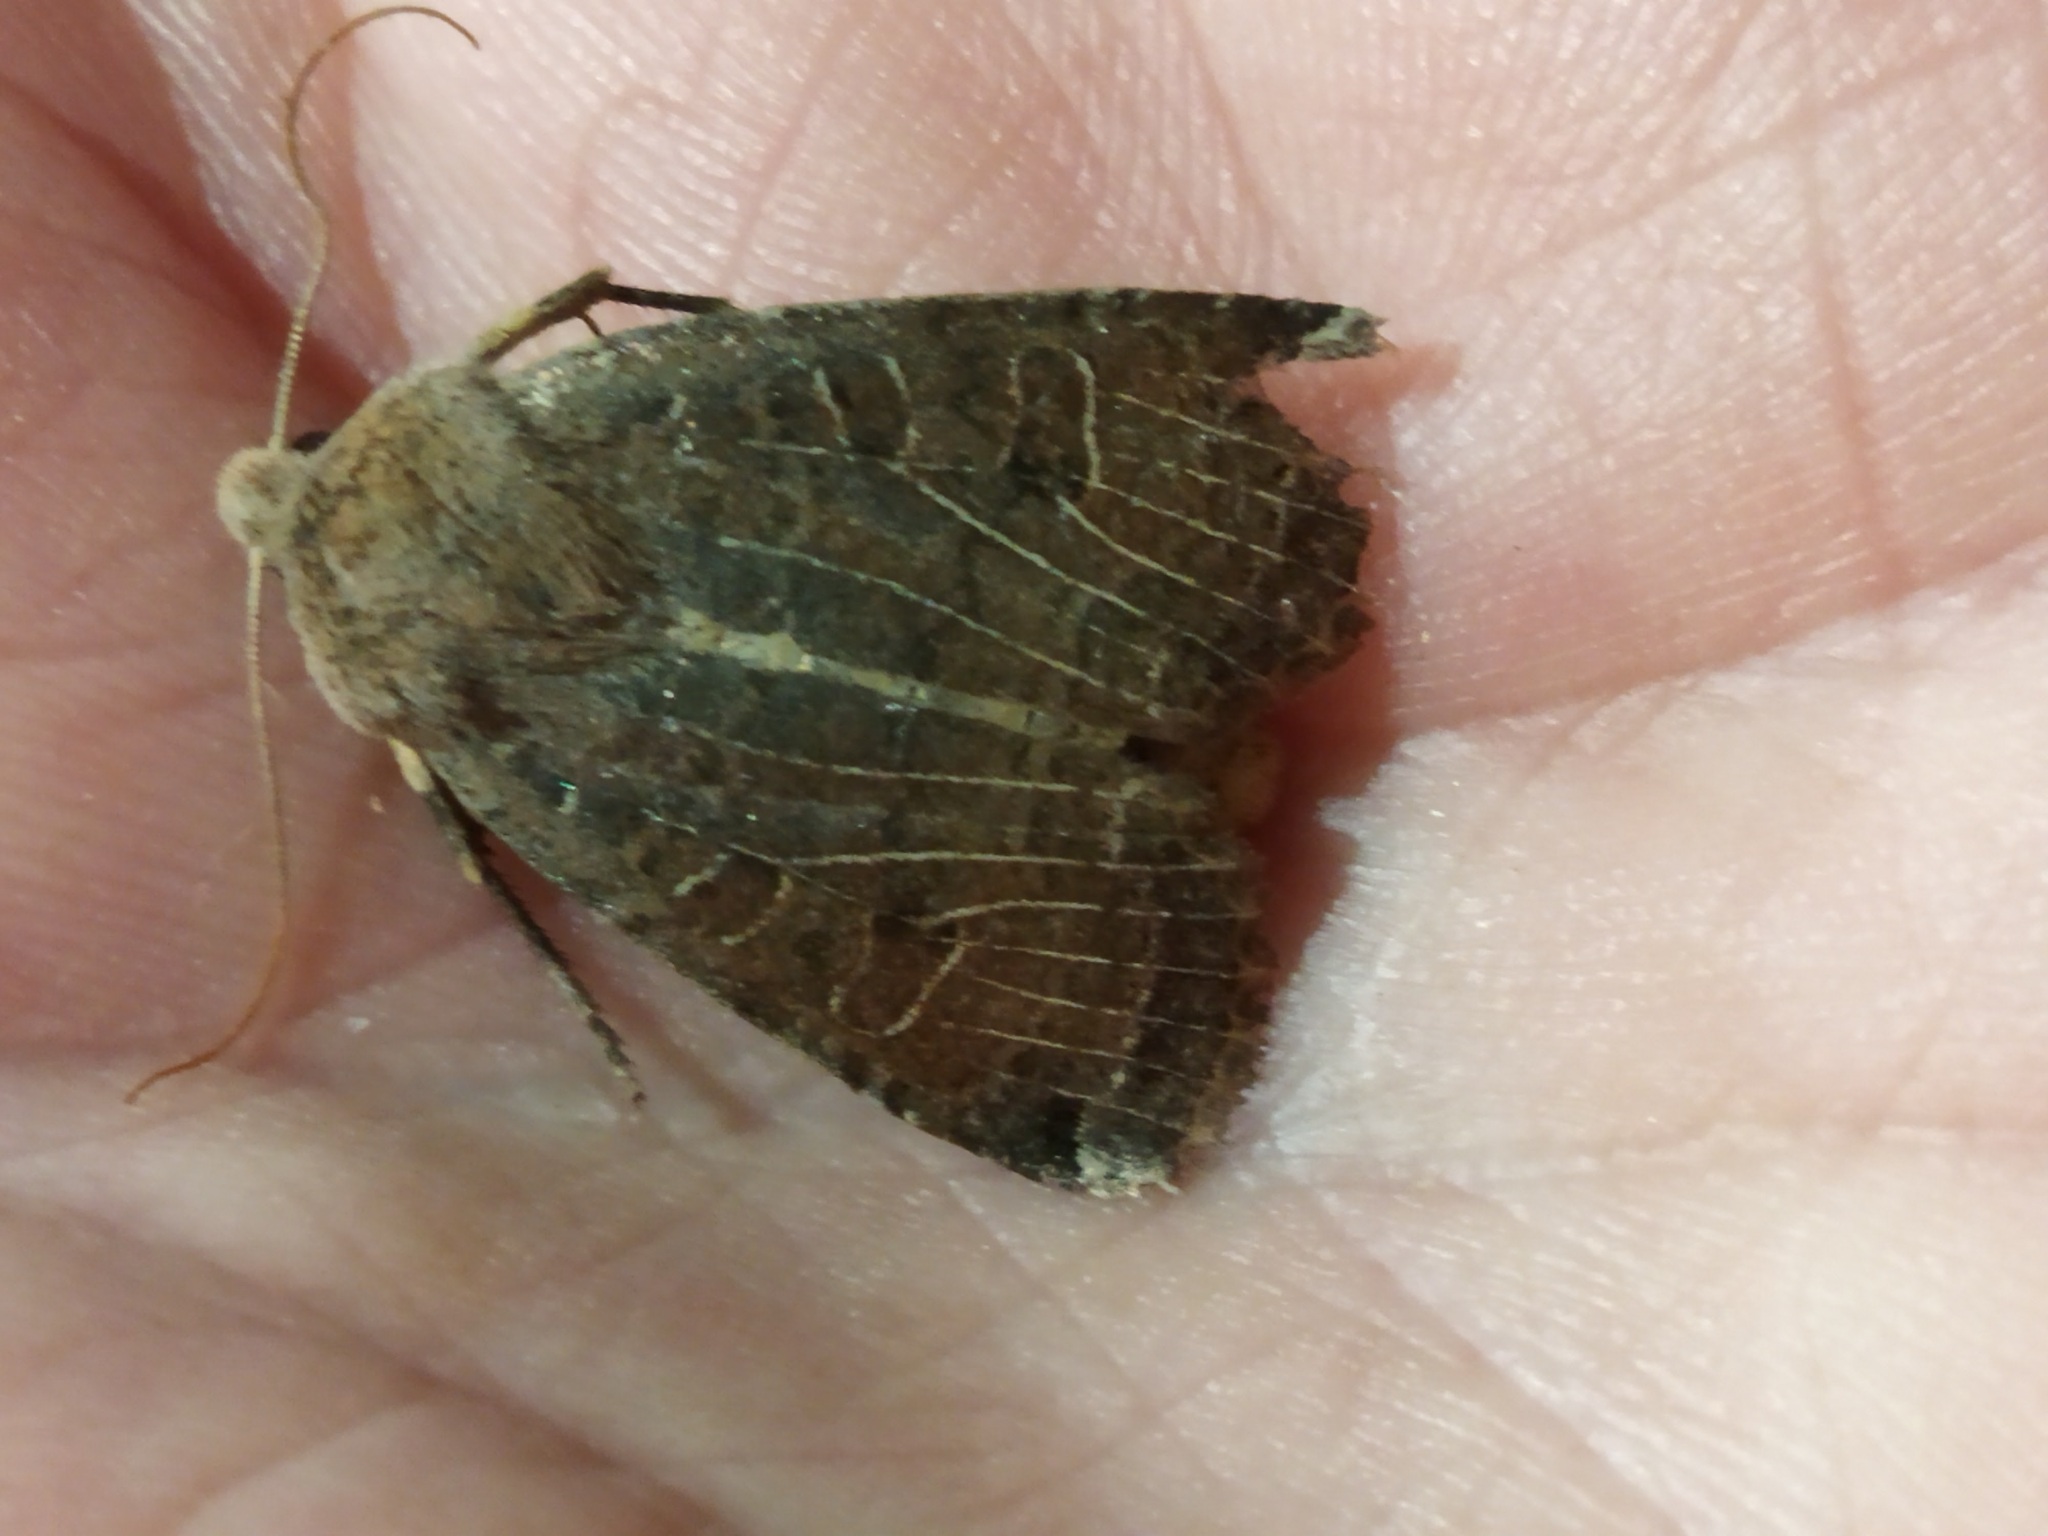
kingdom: Animalia
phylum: Arthropoda
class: Insecta
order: Lepidoptera
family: Noctuidae
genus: Conistra
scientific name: Conistra vaccinii
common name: Chestnut
